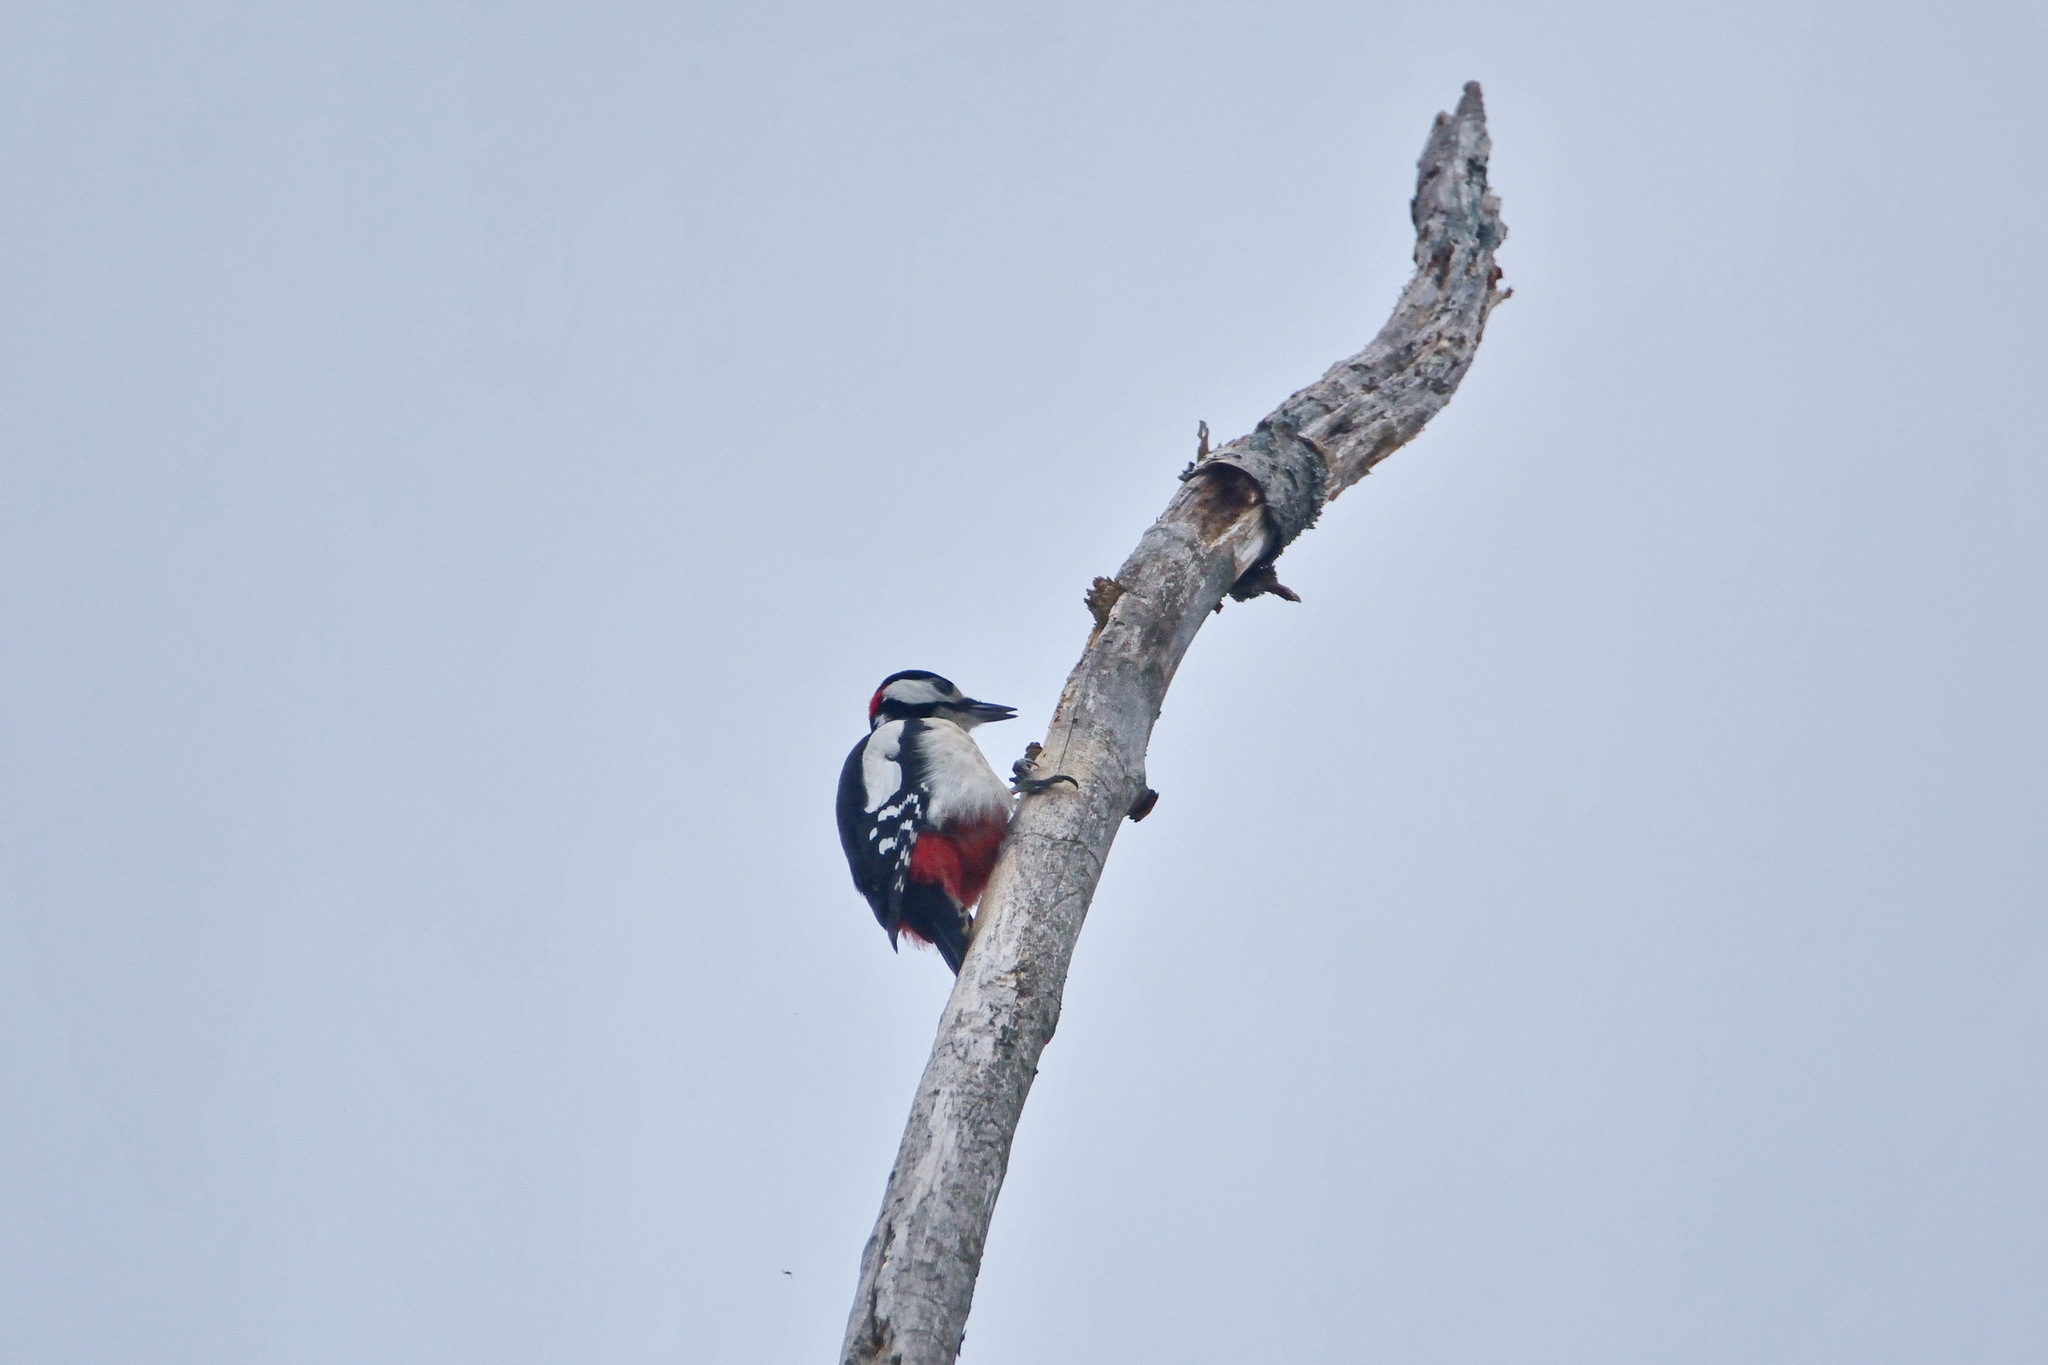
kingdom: Animalia
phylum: Chordata
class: Aves
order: Piciformes
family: Picidae
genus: Dendrocopos
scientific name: Dendrocopos major
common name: Great spotted woodpecker
